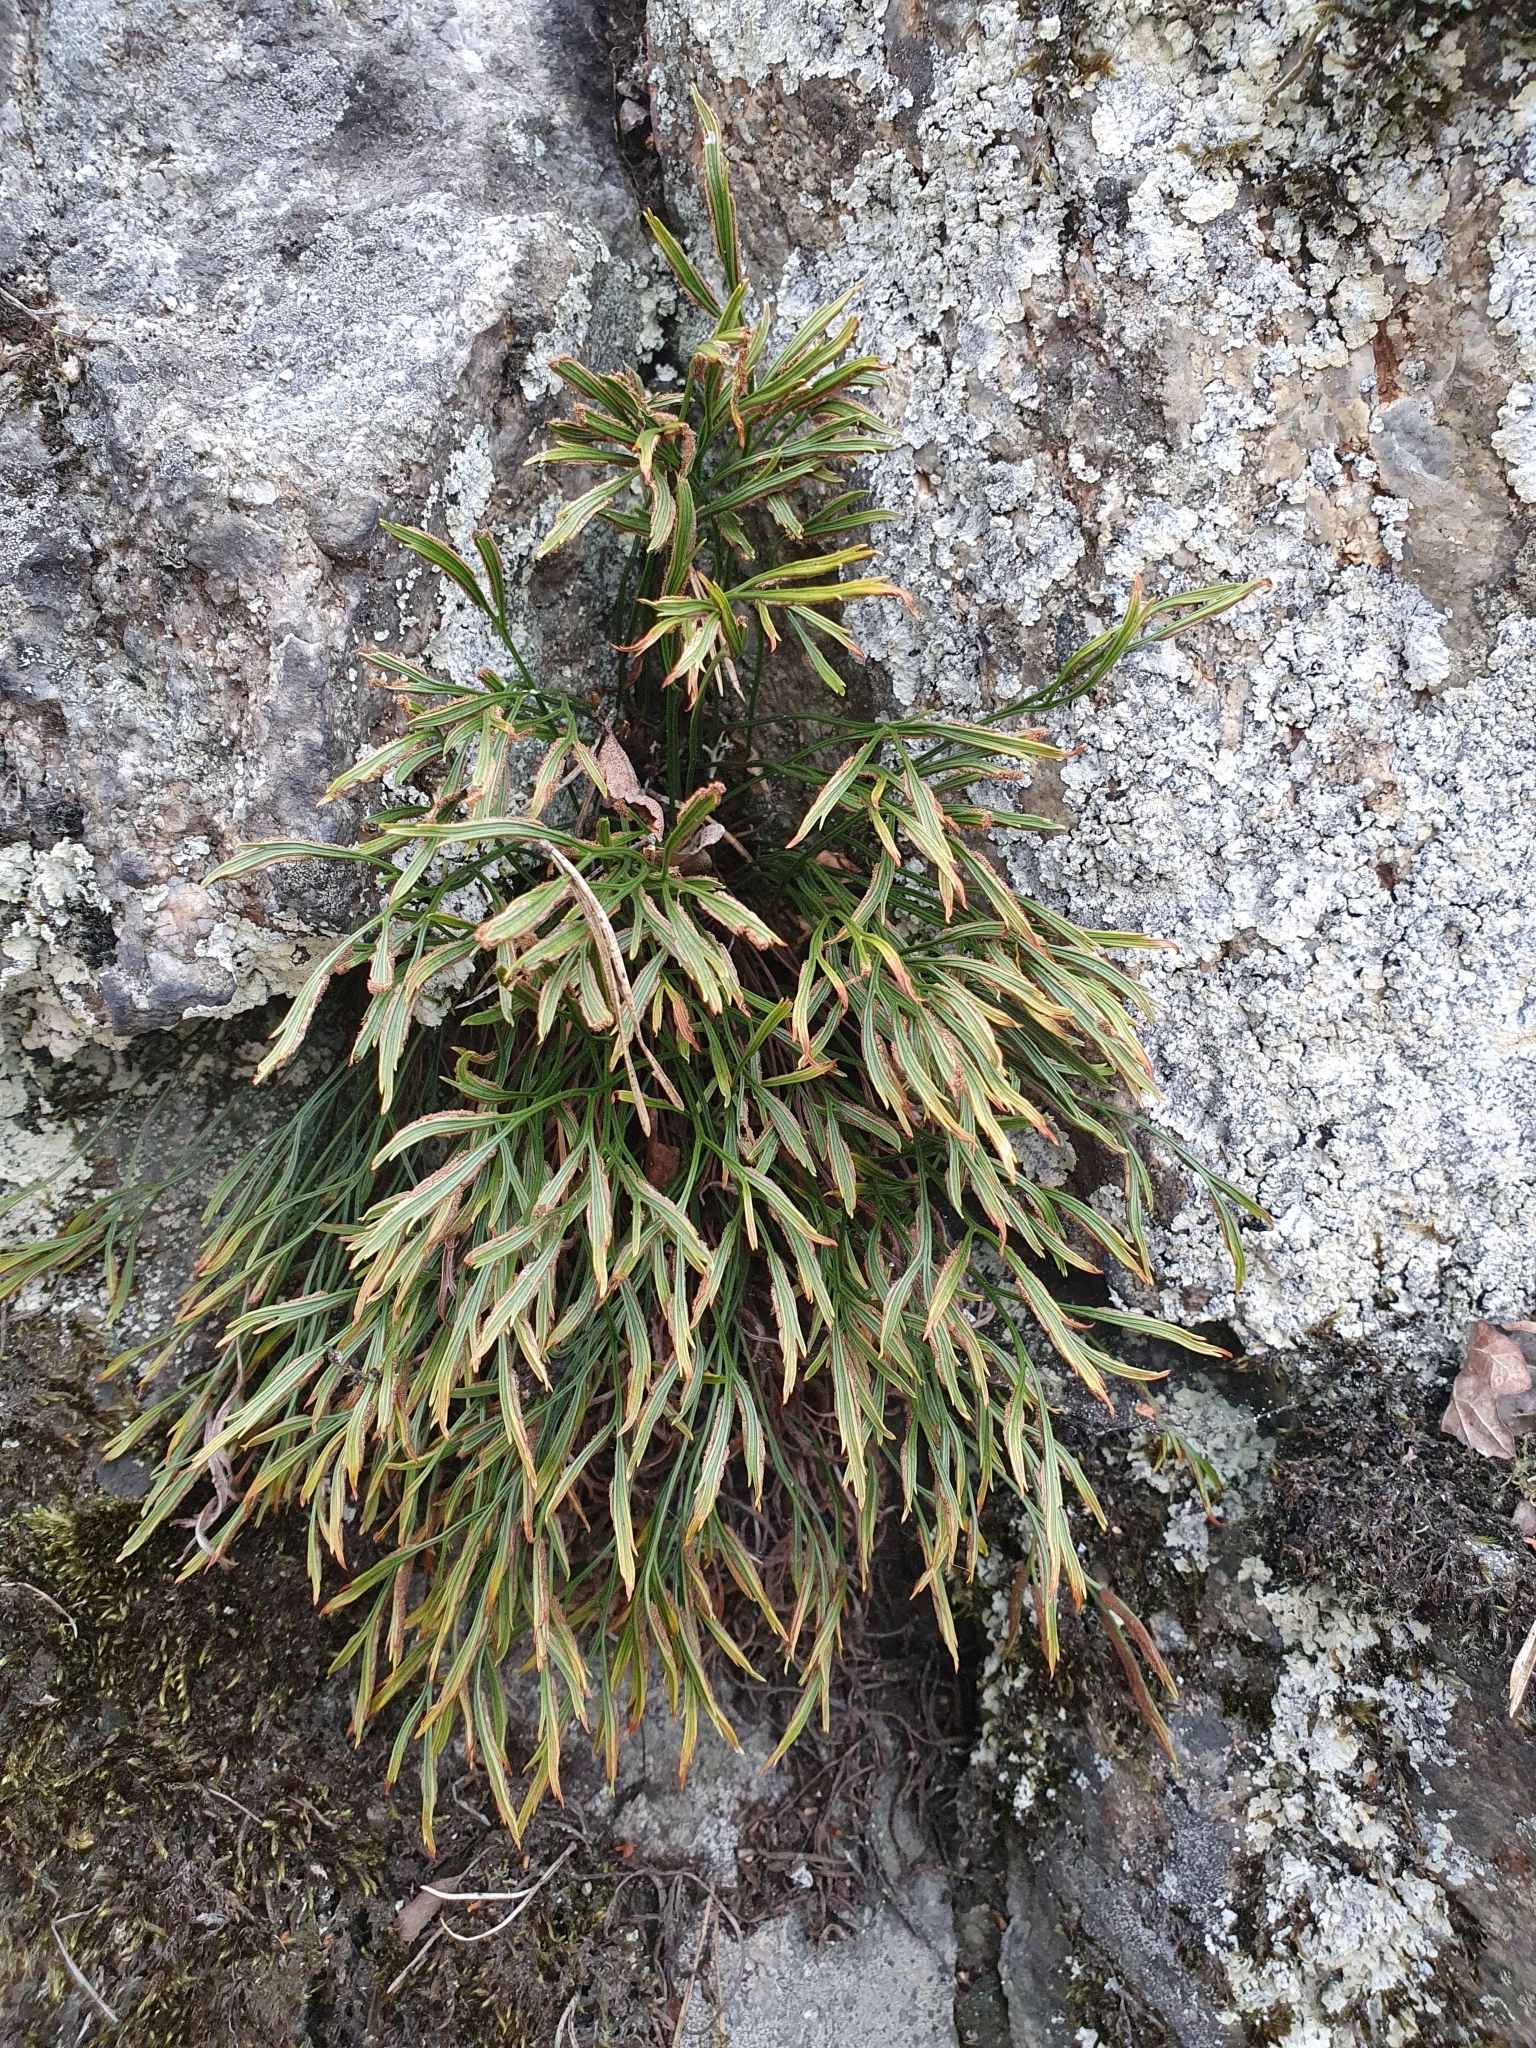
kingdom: Plantae
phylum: Tracheophyta
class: Polypodiopsida
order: Polypodiales
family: Aspleniaceae
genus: Asplenium
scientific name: Asplenium septentrionale
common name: Forked spleenwort
